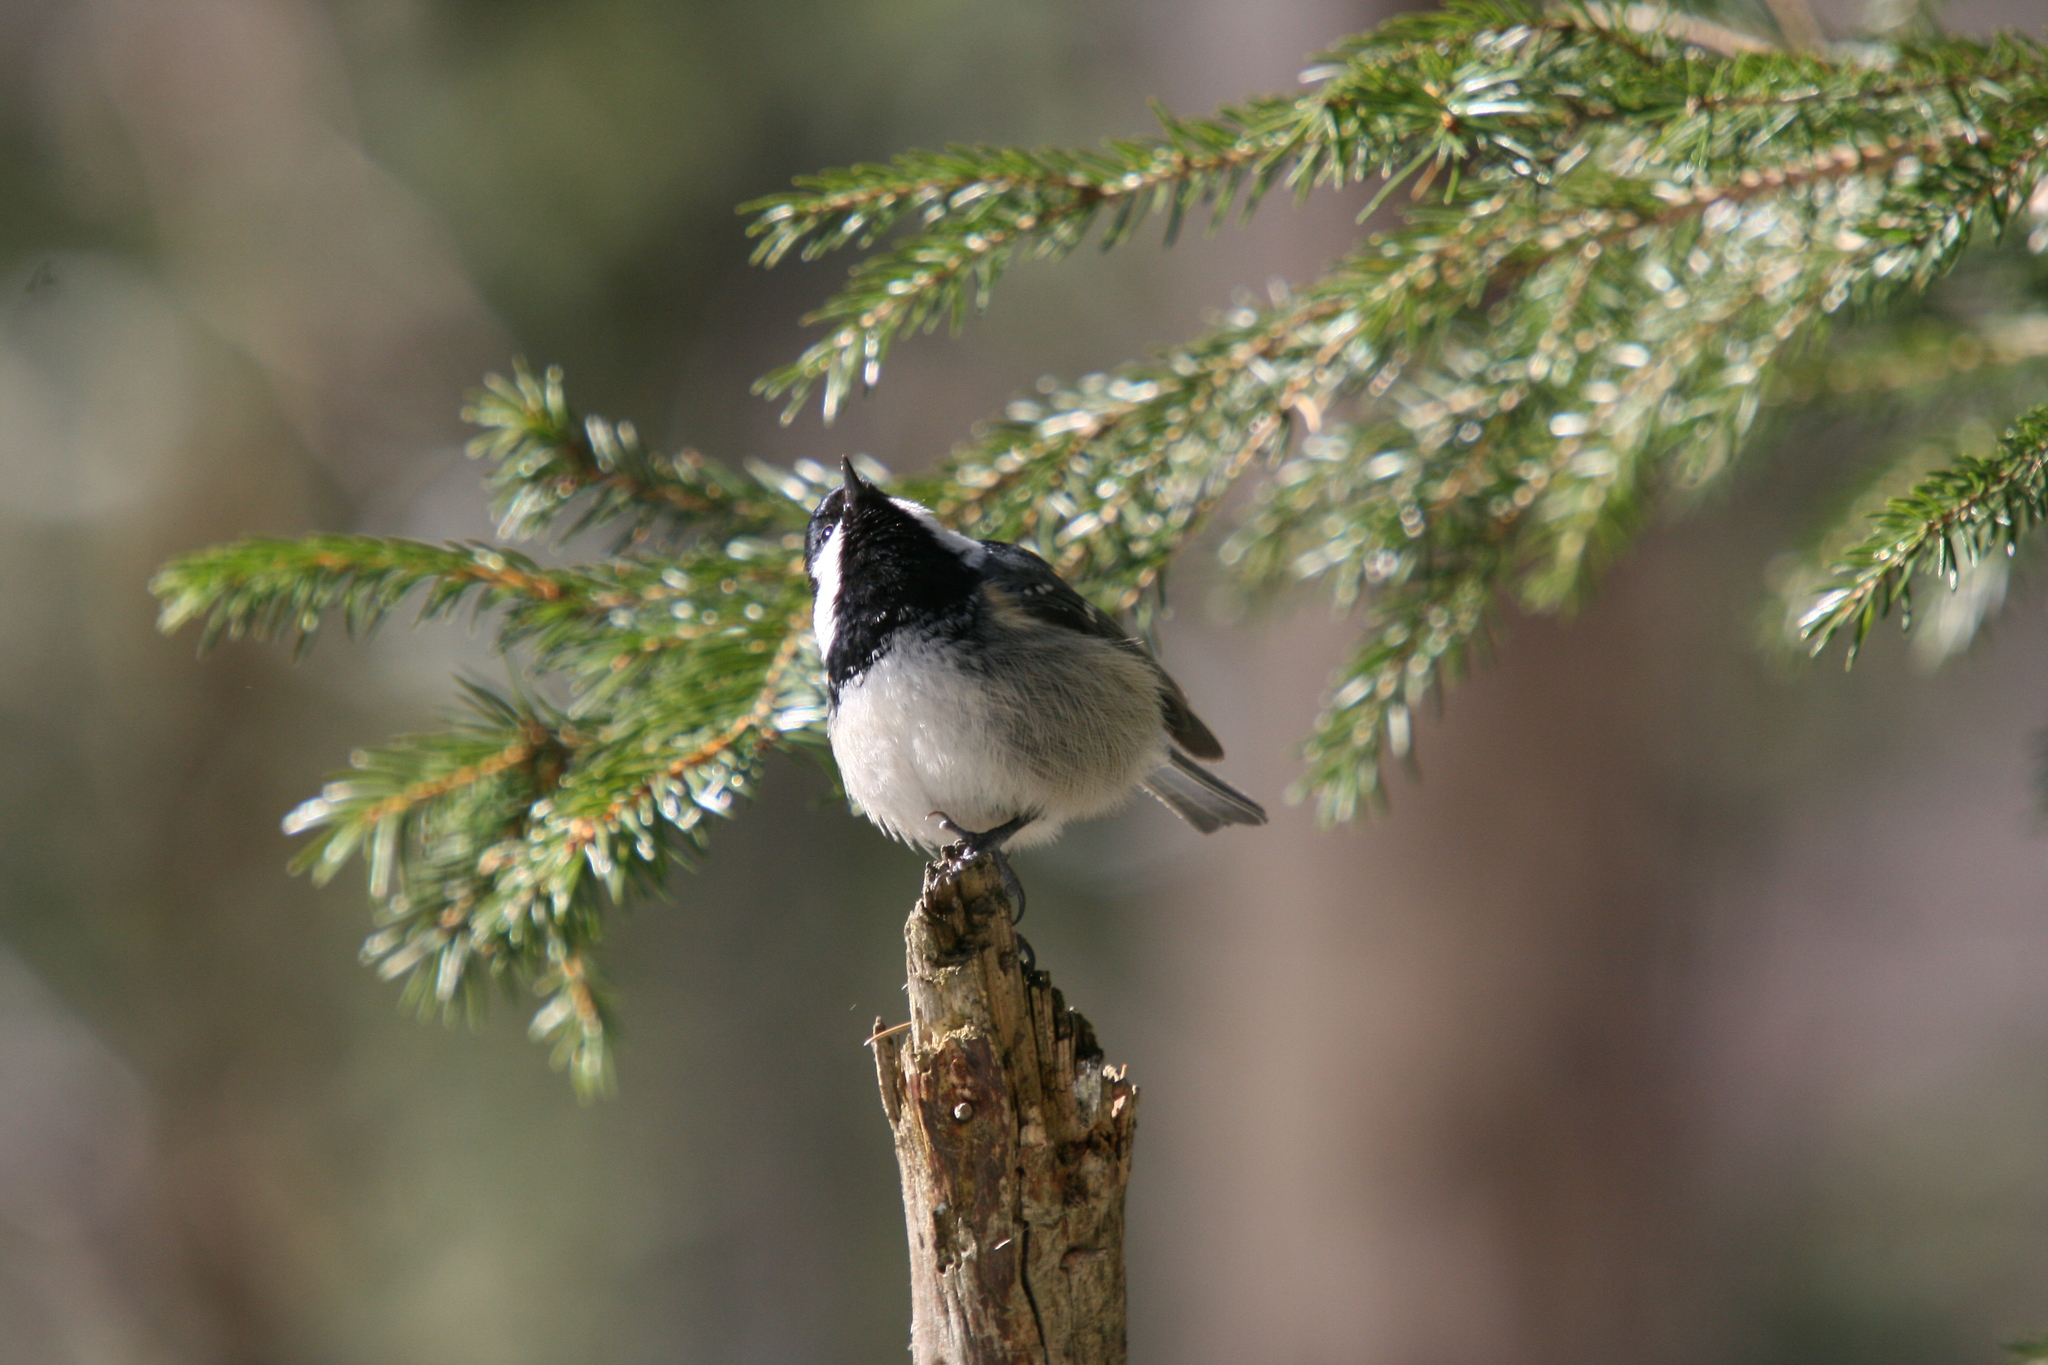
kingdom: Animalia
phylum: Chordata
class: Aves
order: Passeriformes
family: Paridae
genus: Periparus
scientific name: Periparus ater
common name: Coal tit
